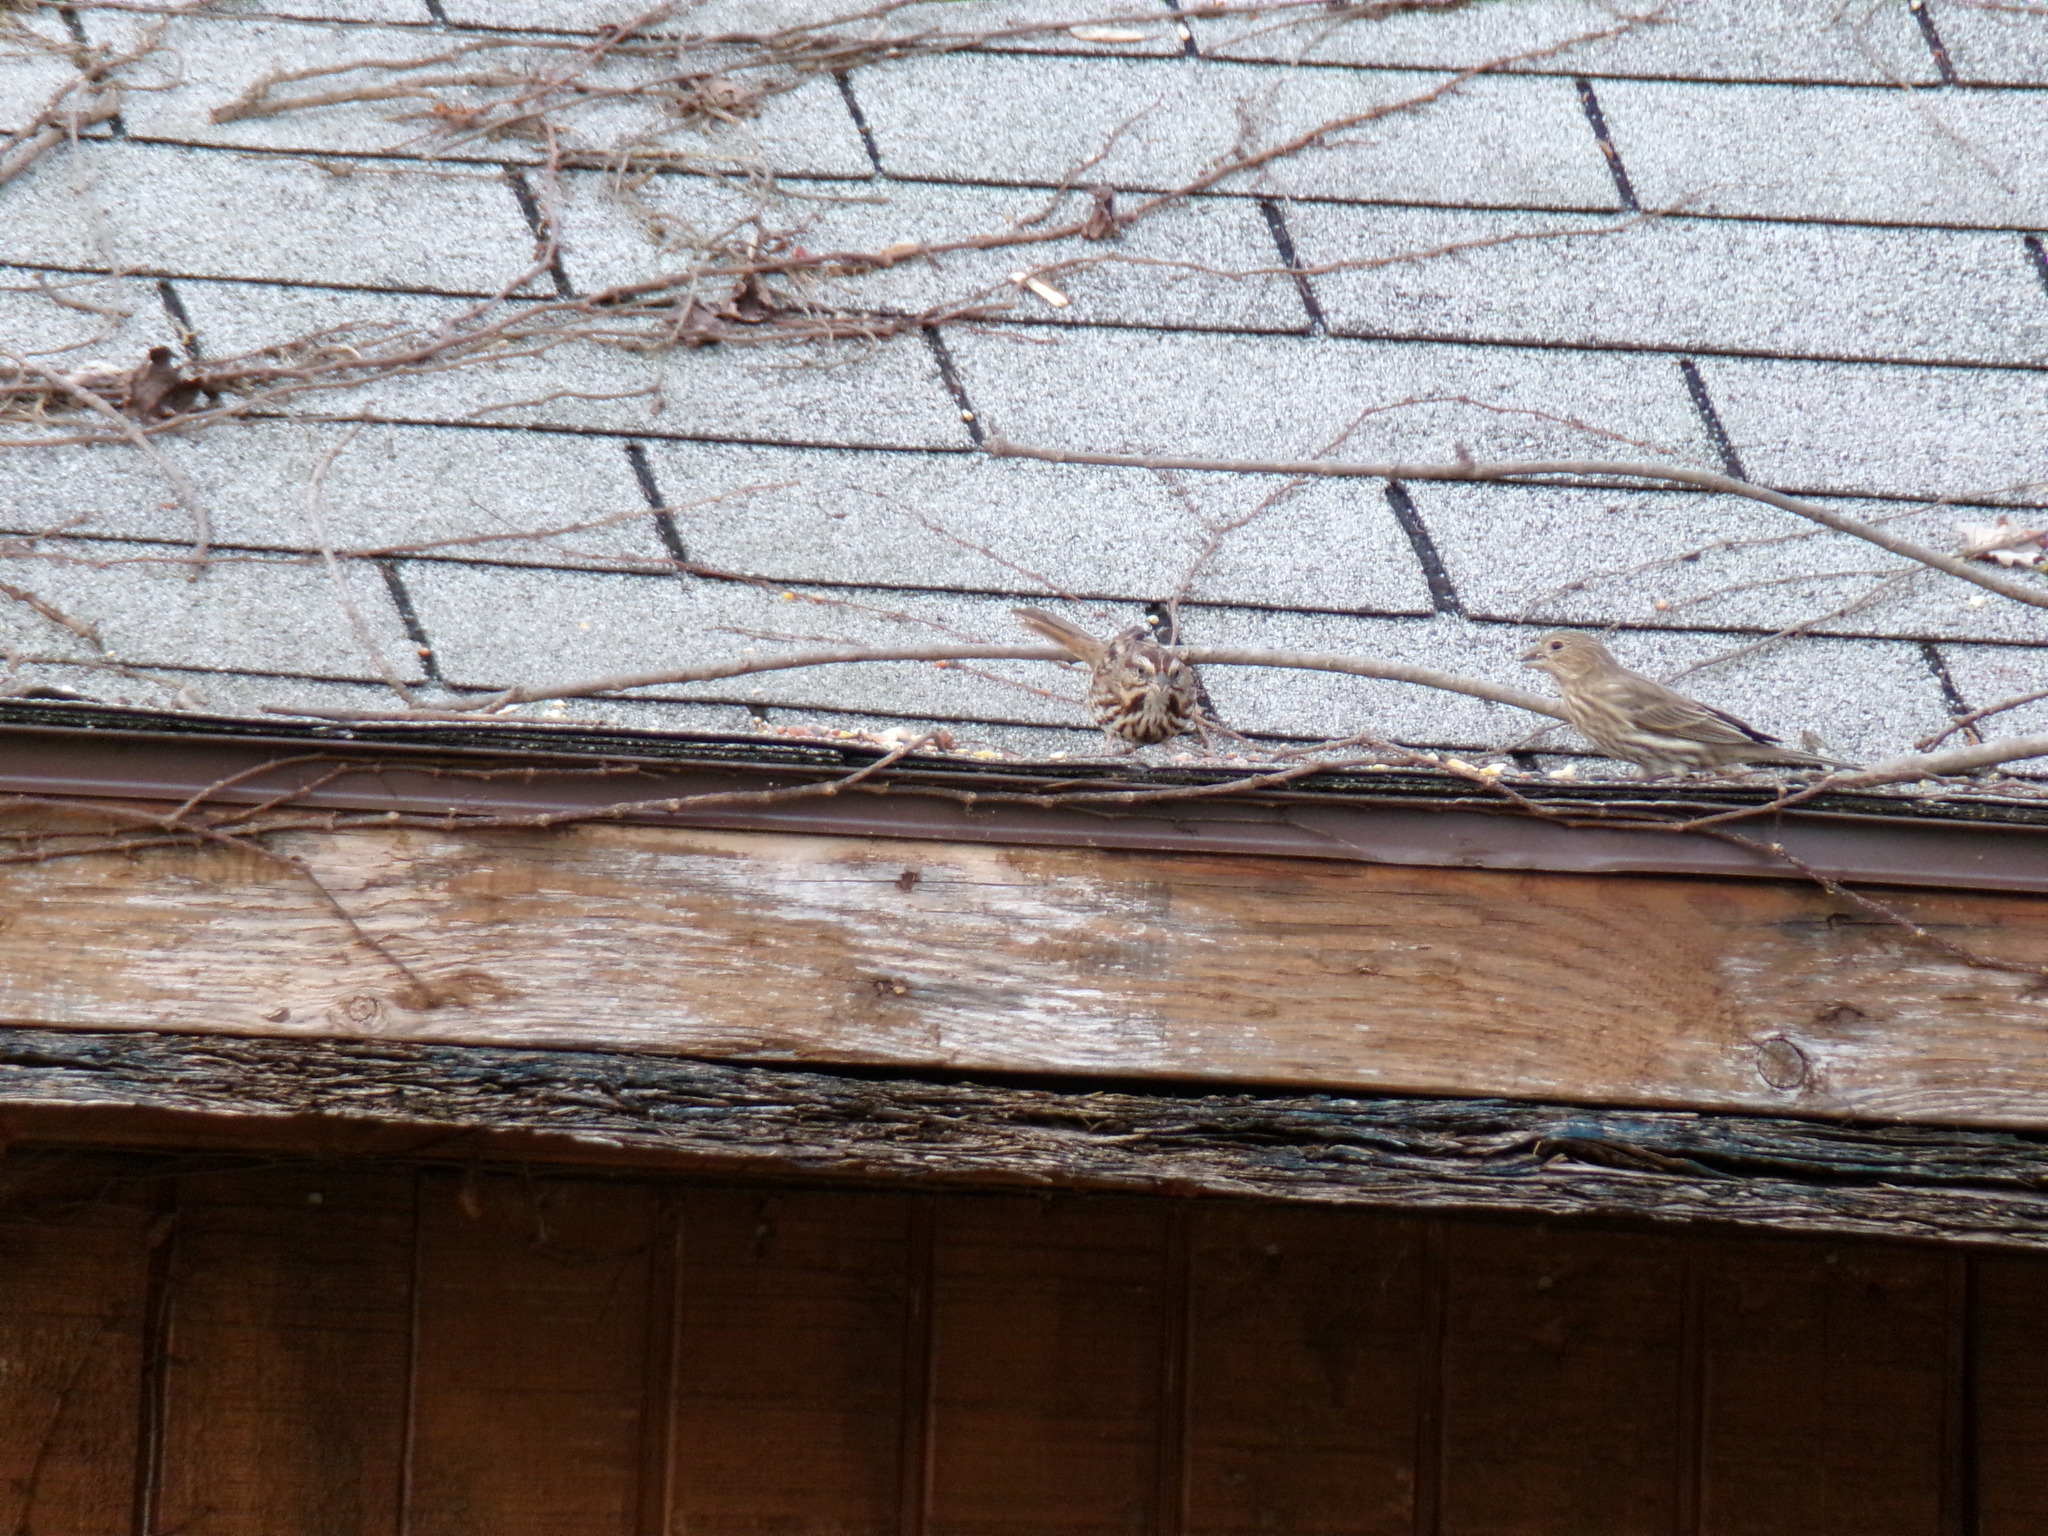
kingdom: Animalia
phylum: Chordata
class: Aves
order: Passeriformes
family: Passerellidae
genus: Melospiza
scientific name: Melospiza melodia
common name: Song sparrow
